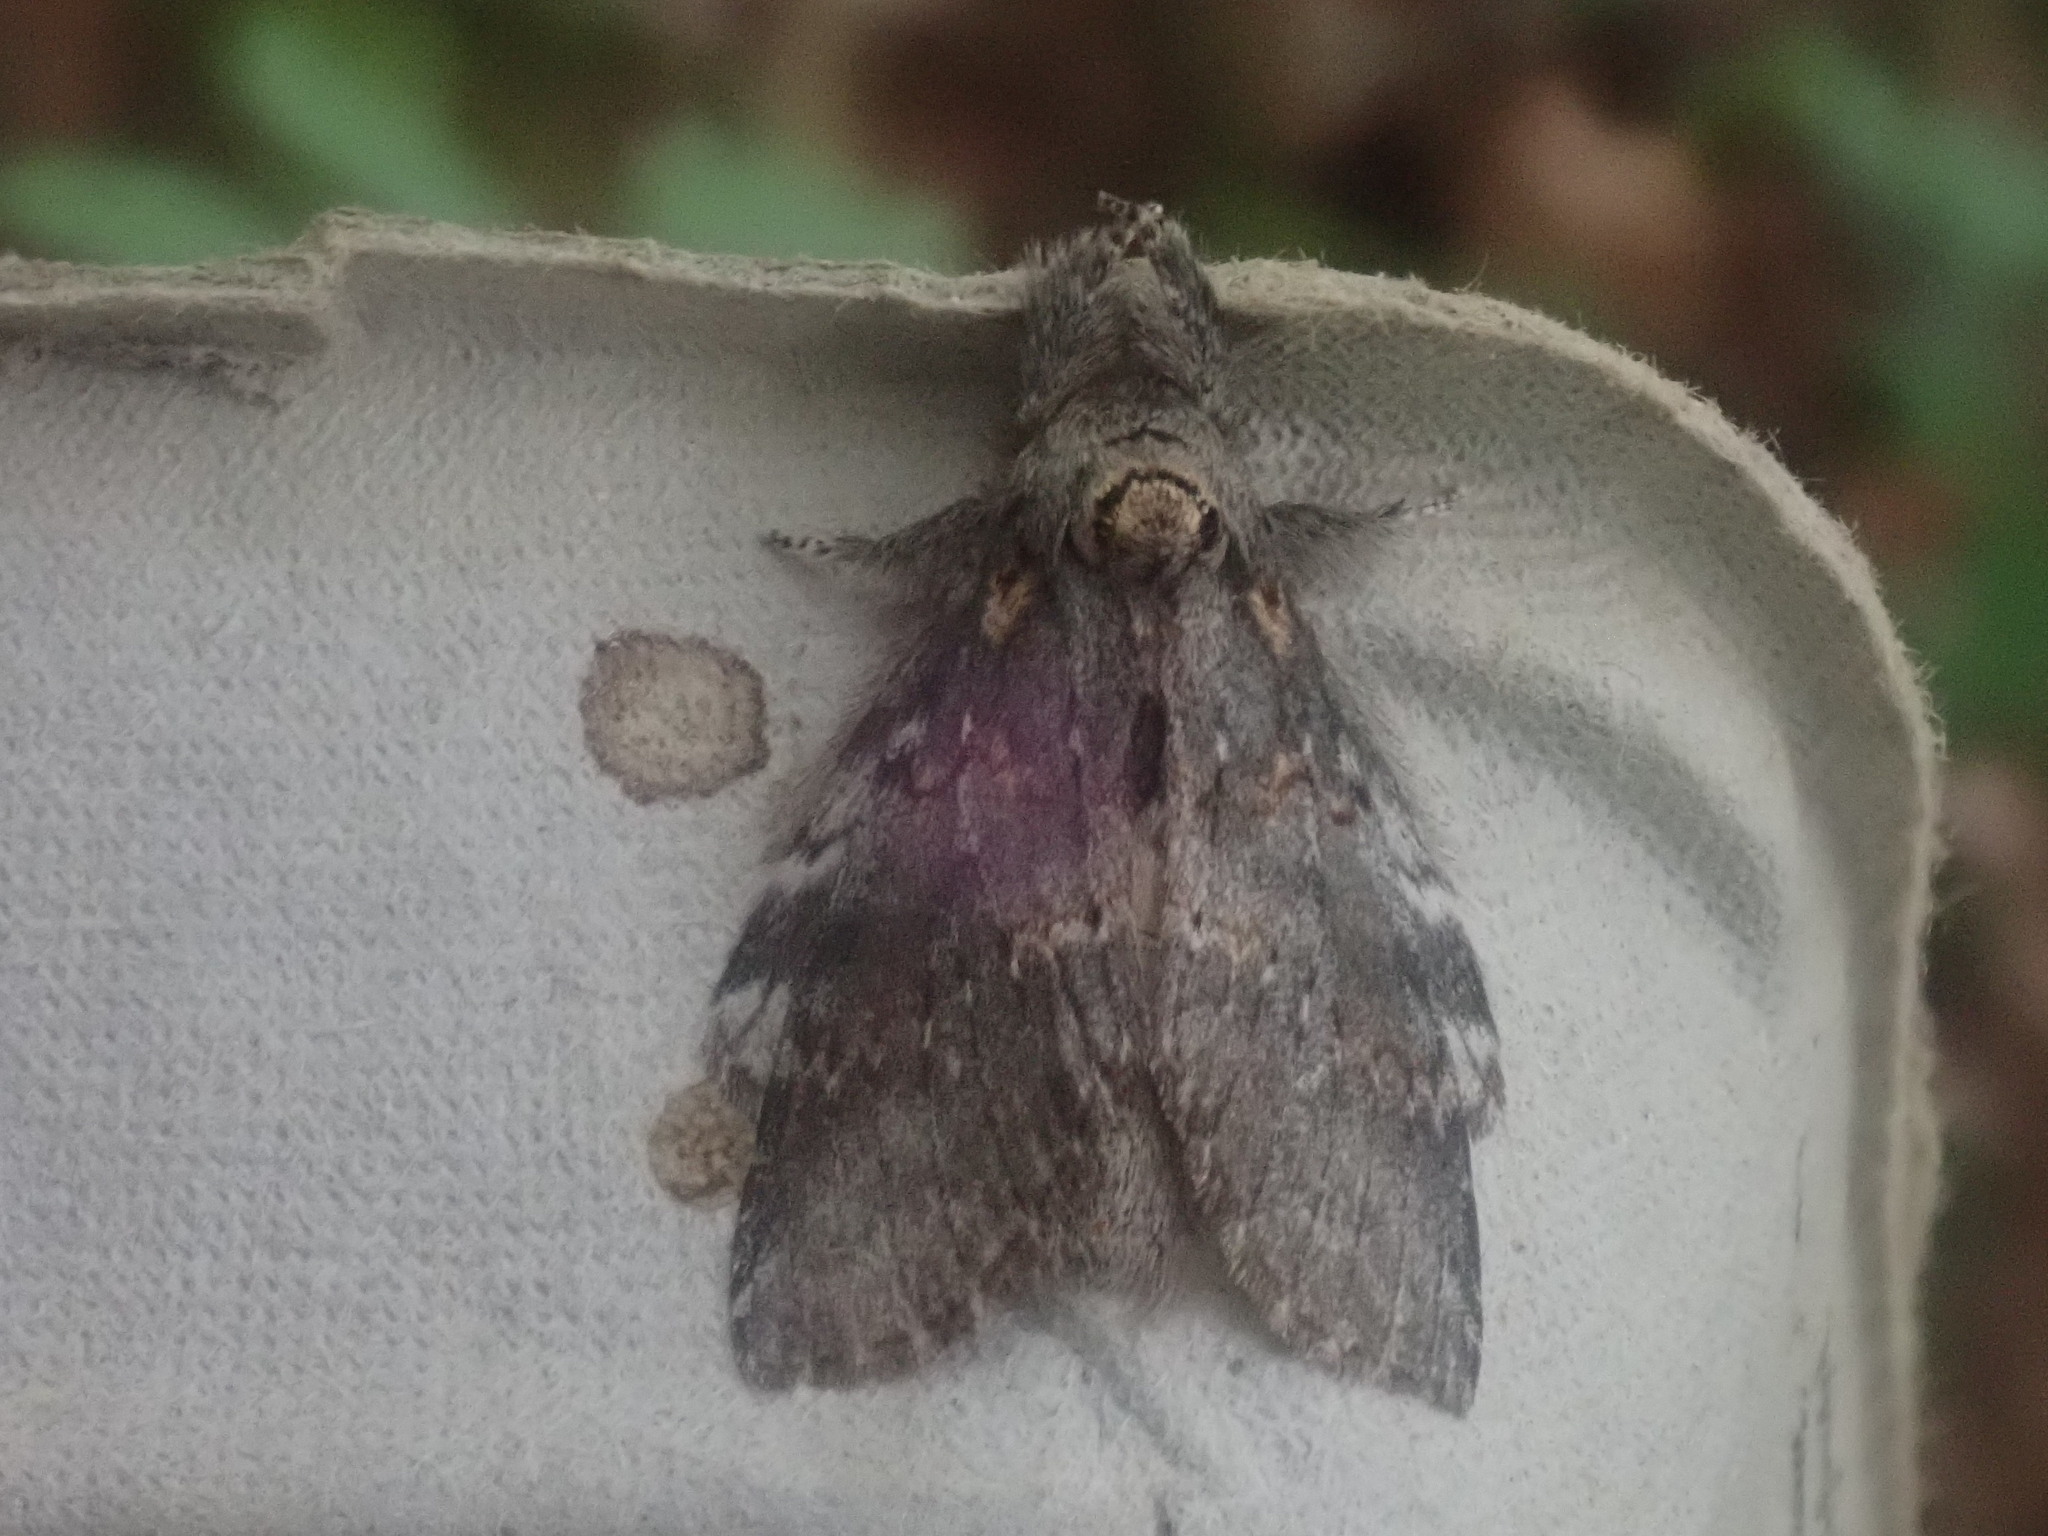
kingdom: Animalia
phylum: Arthropoda
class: Insecta
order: Lepidoptera
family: Notodontidae
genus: Peridea
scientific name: Peridea angulosa
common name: Angulose prominent
